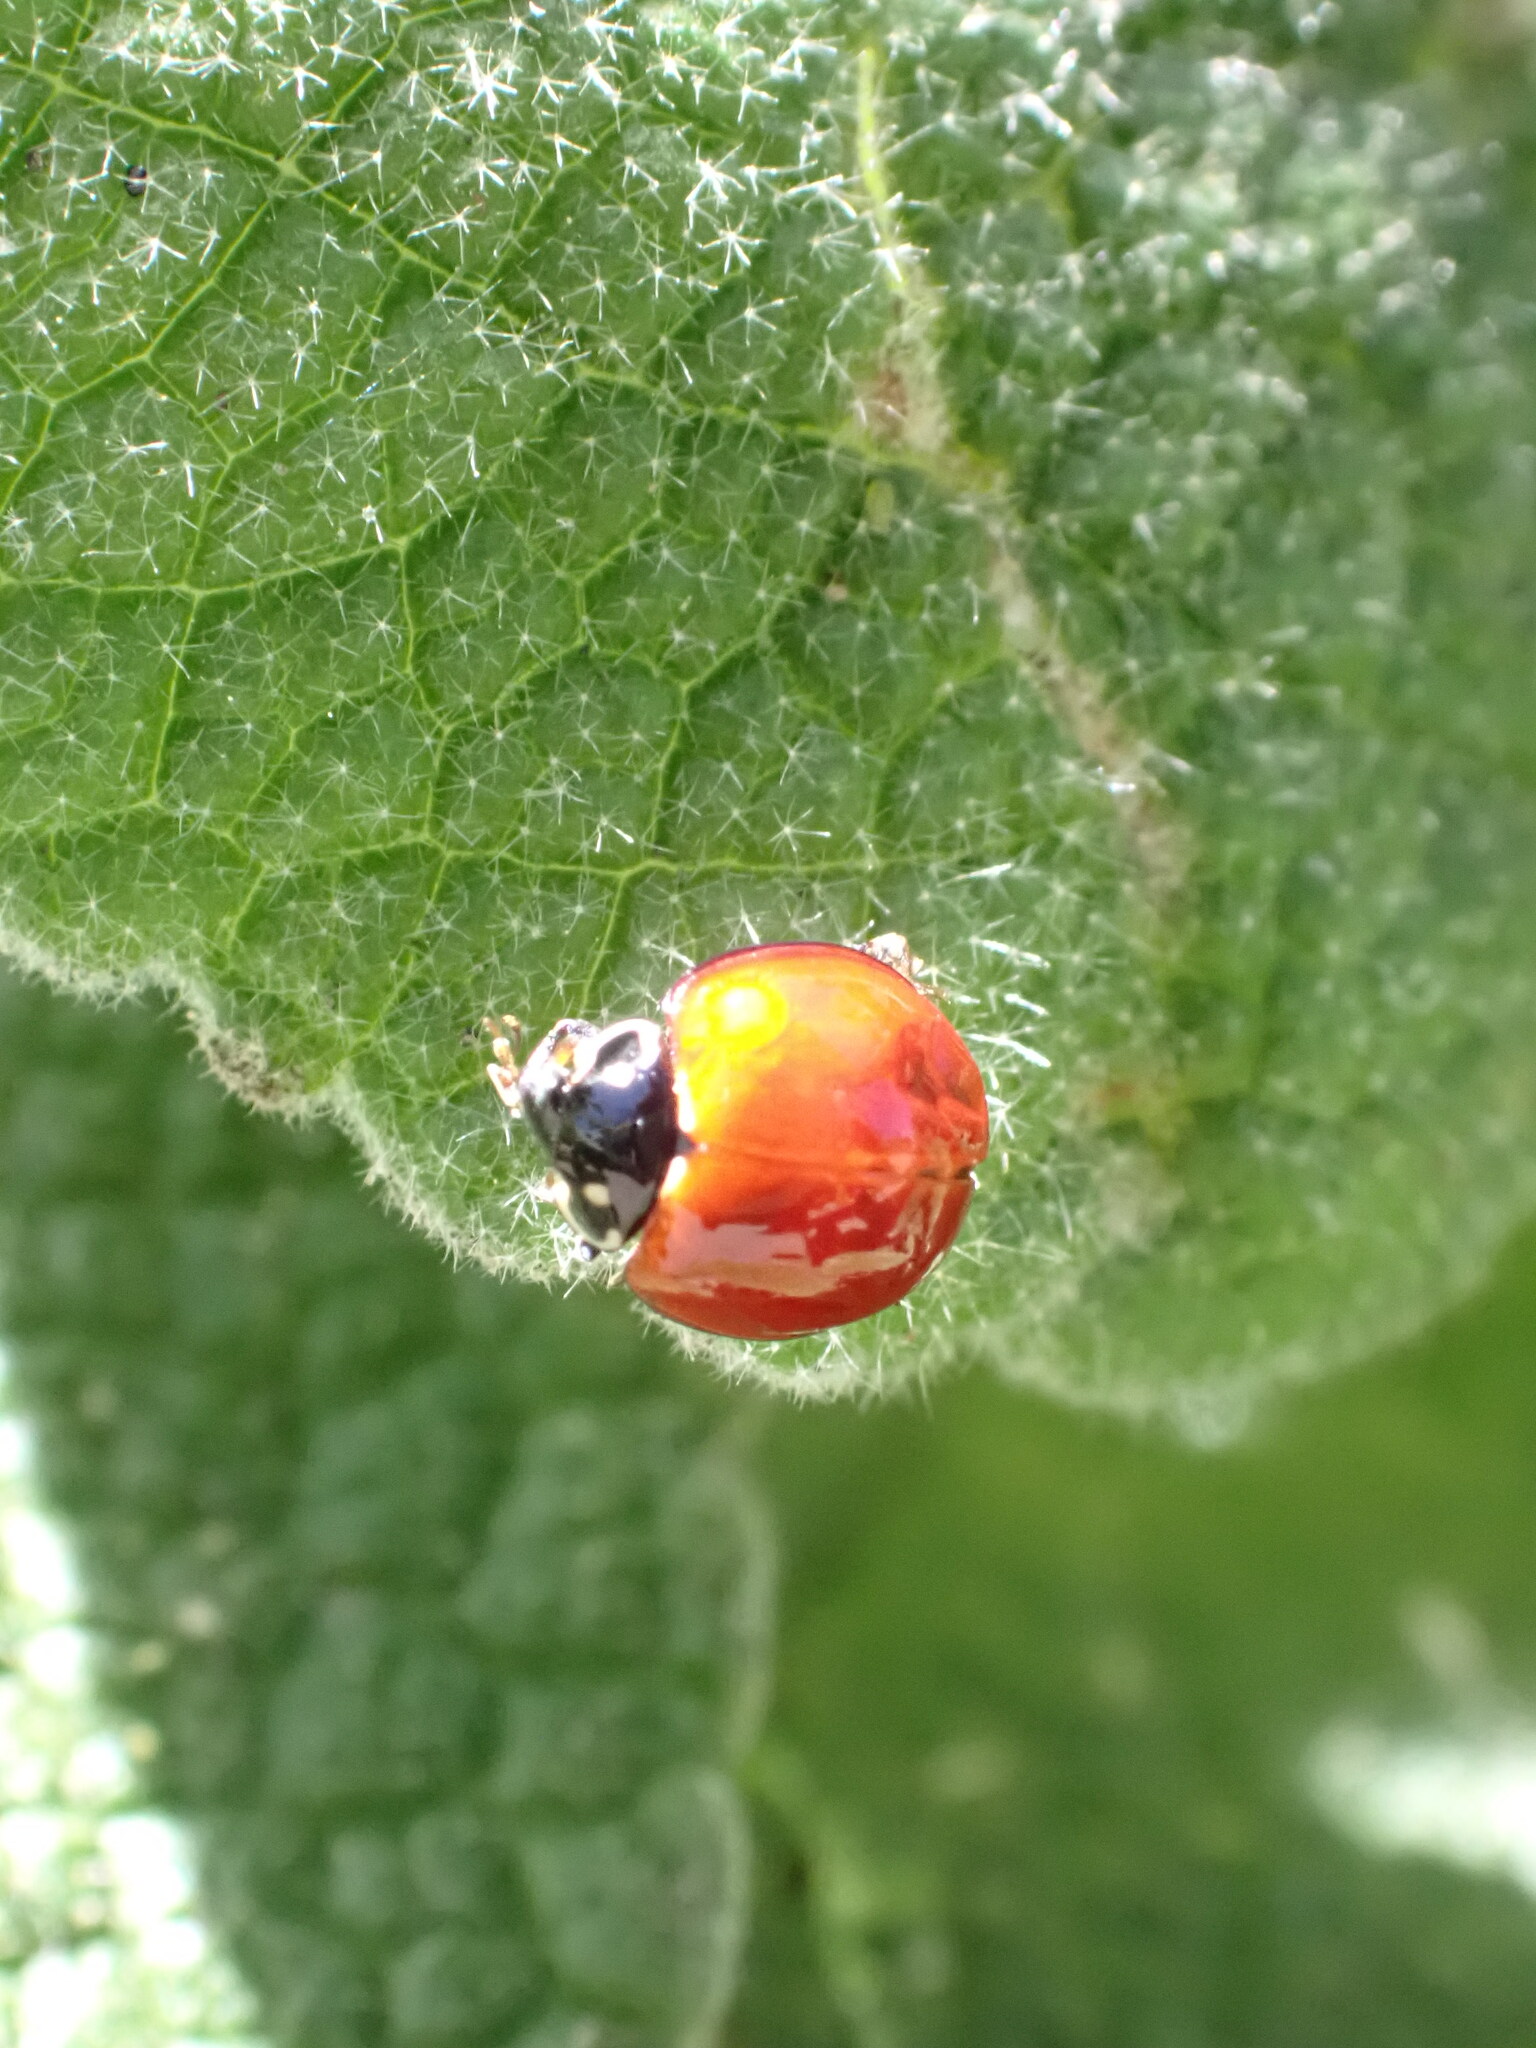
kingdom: Animalia
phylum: Arthropoda
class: Insecta
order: Coleoptera
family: Coccinellidae
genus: Cycloneda
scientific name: Cycloneda sanguinea
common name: Ladybird beetle
